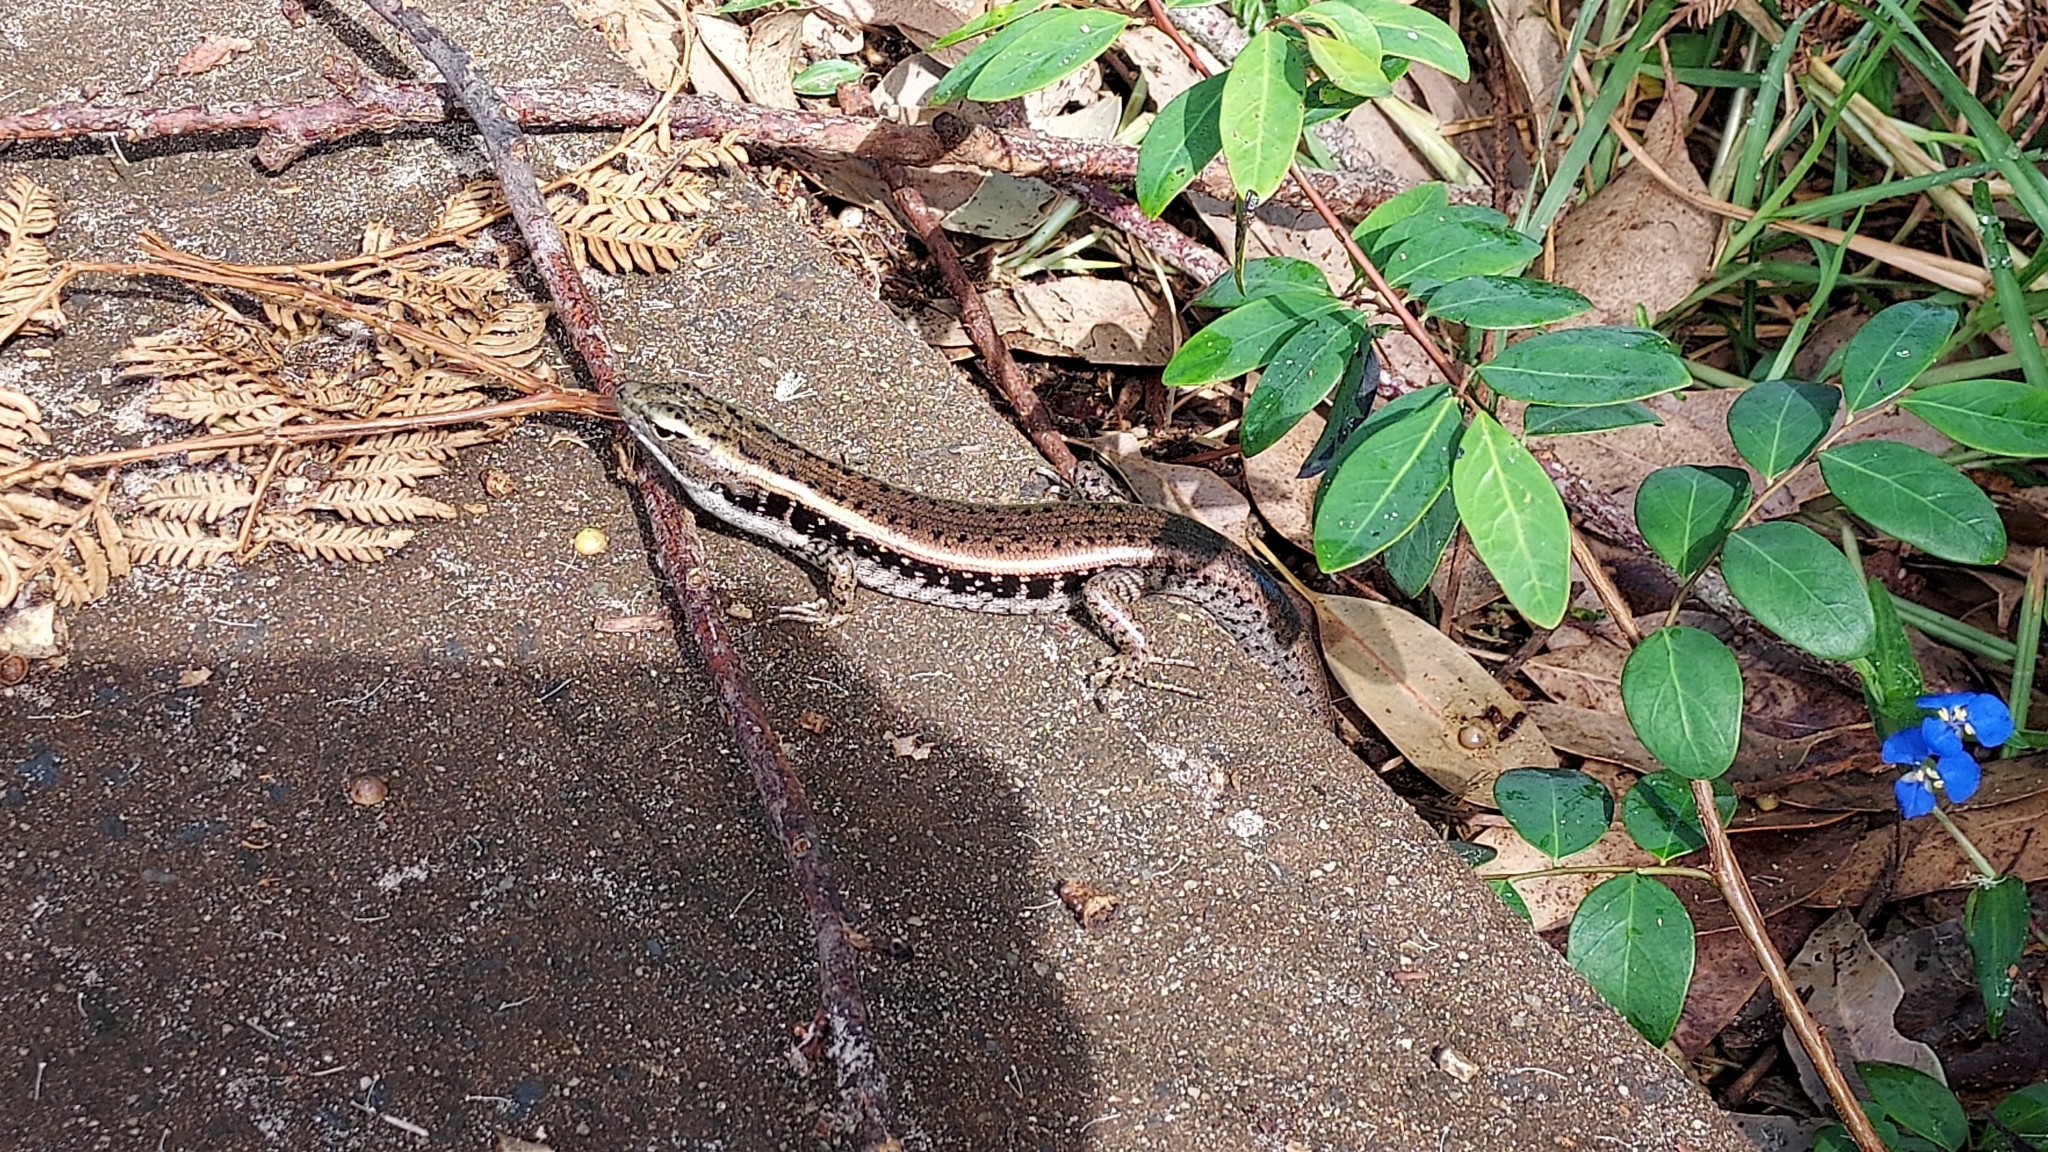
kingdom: Animalia
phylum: Chordata
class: Squamata
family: Scincidae
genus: Eulamprus
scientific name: Eulamprus quoyii
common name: Eastern water skink
